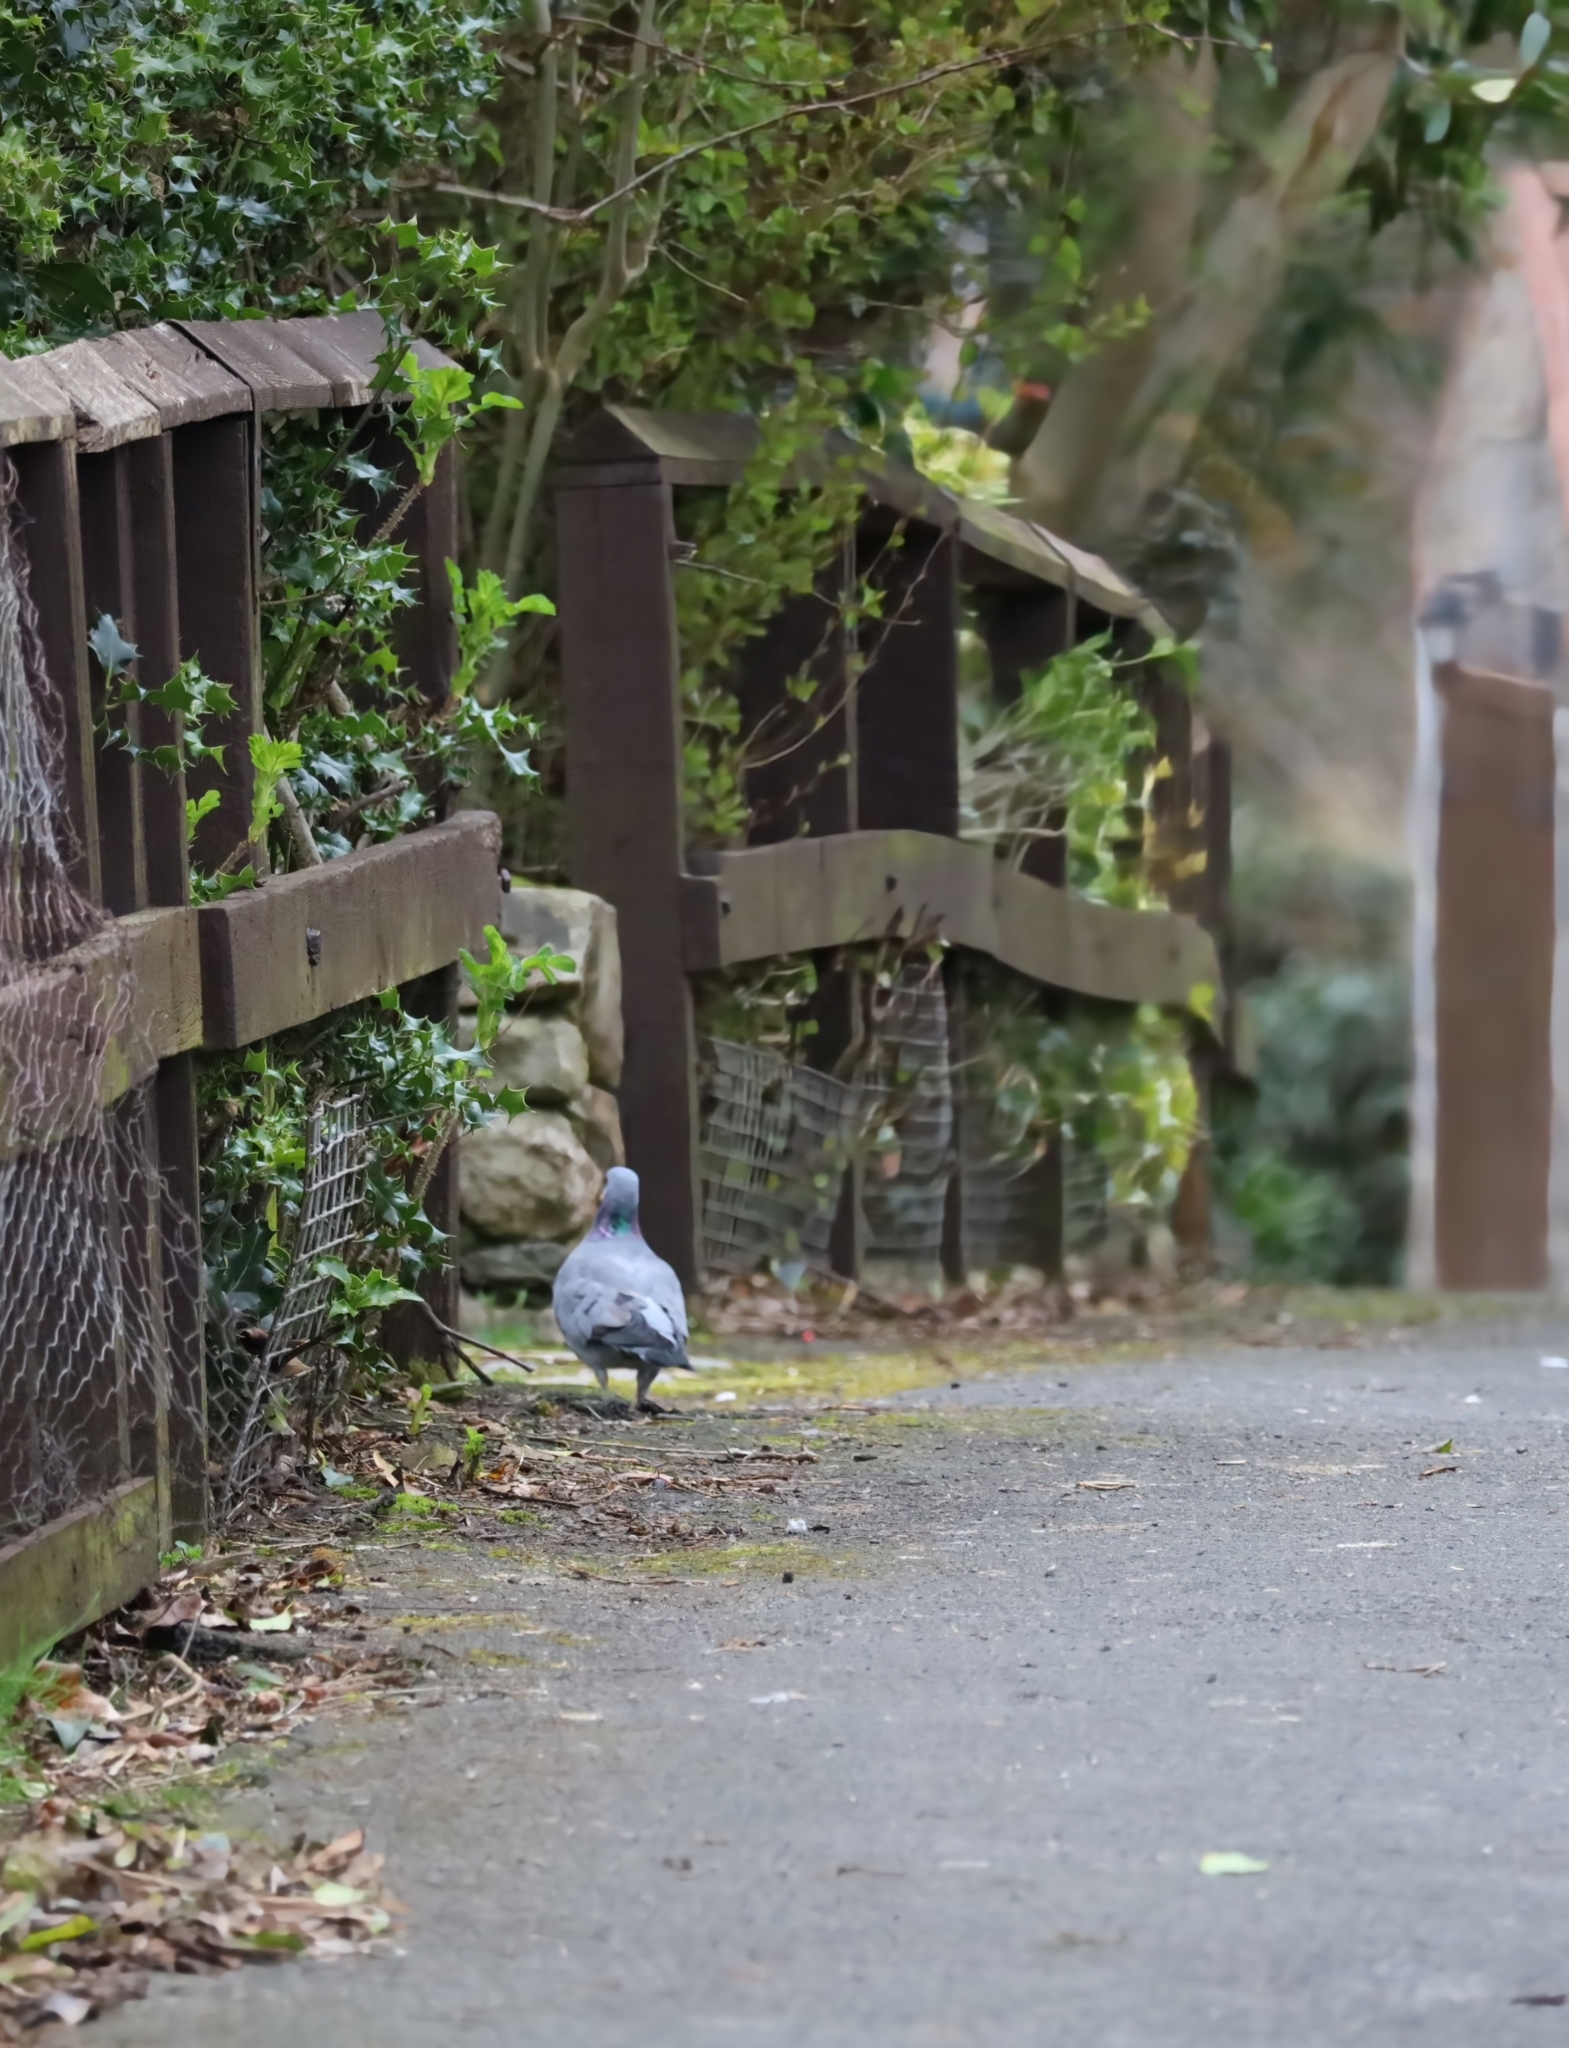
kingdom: Animalia
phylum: Chordata
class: Aves
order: Columbiformes
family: Columbidae
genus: Columba
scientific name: Columba oenas
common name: Stock dove
